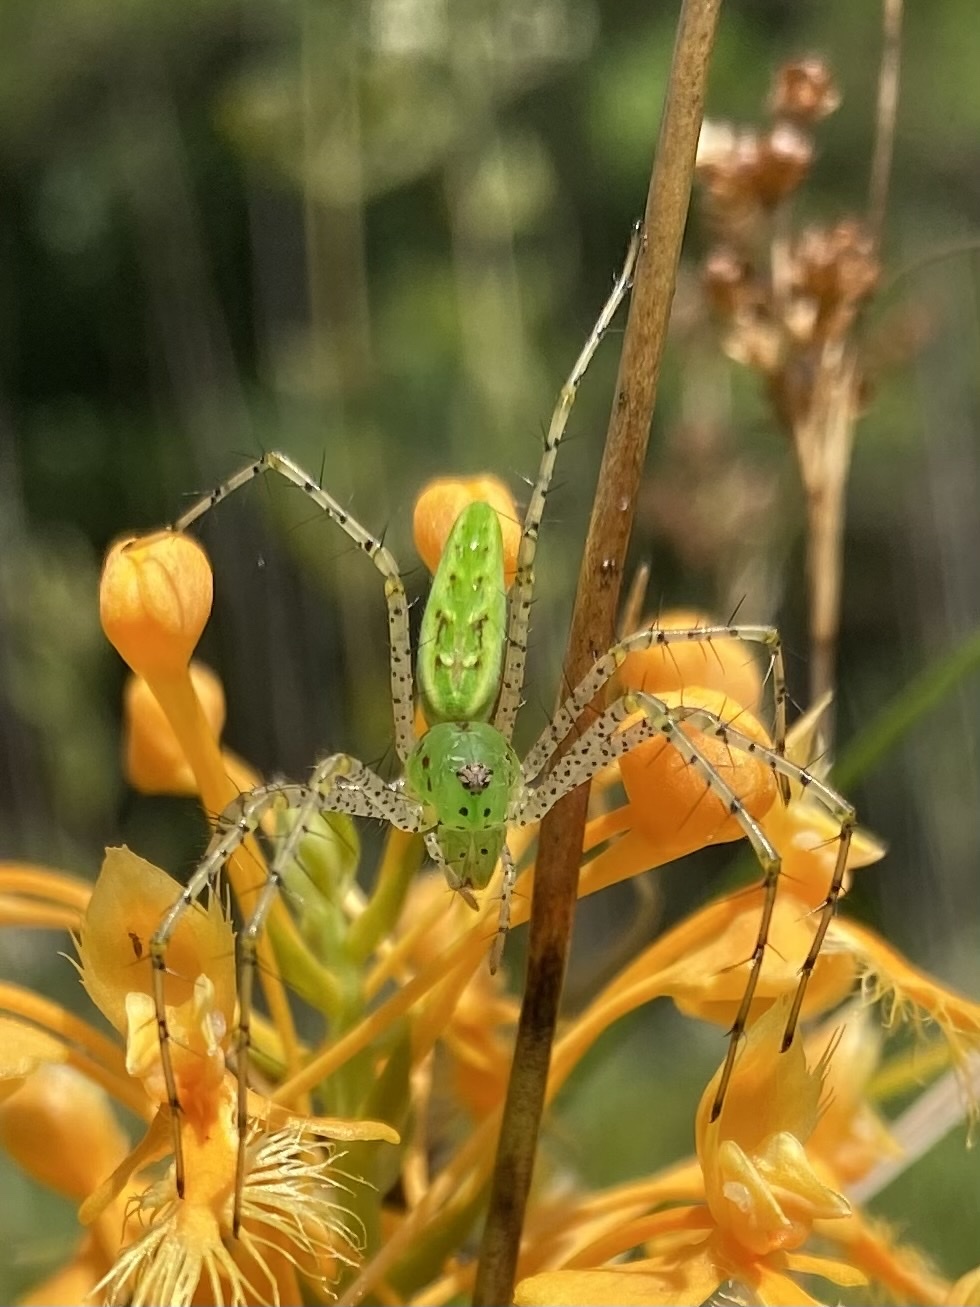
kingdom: Animalia
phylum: Arthropoda
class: Arachnida
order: Araneae
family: Oxyopidae
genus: Peucetia
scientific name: Peucetia viridans
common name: Lynx spiders
